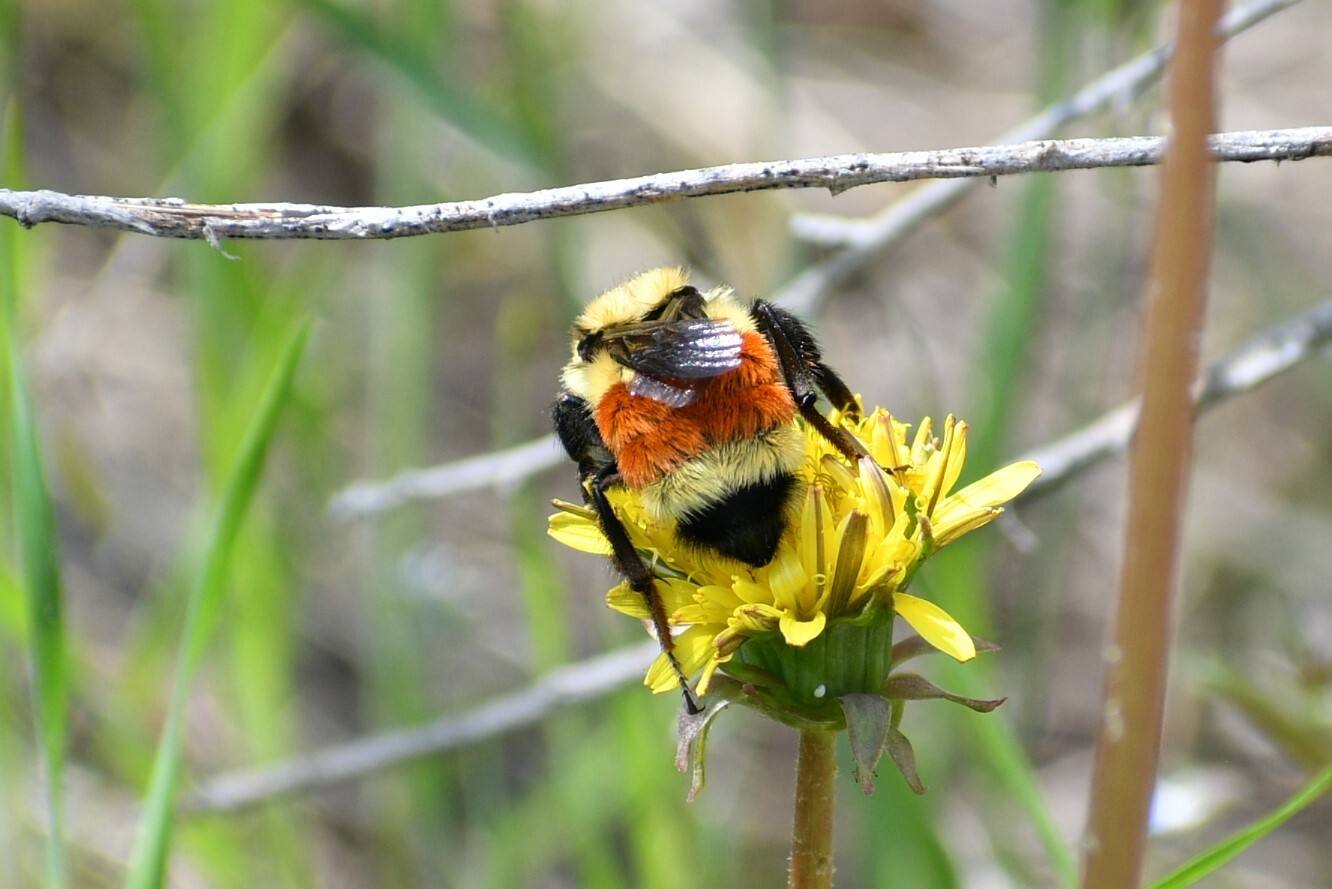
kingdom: Animalia
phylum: Arthropoda
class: Insecta
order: Hymenoptera
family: Apidae
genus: Bombus
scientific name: Bombus huntii
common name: Hunt bumble bee
